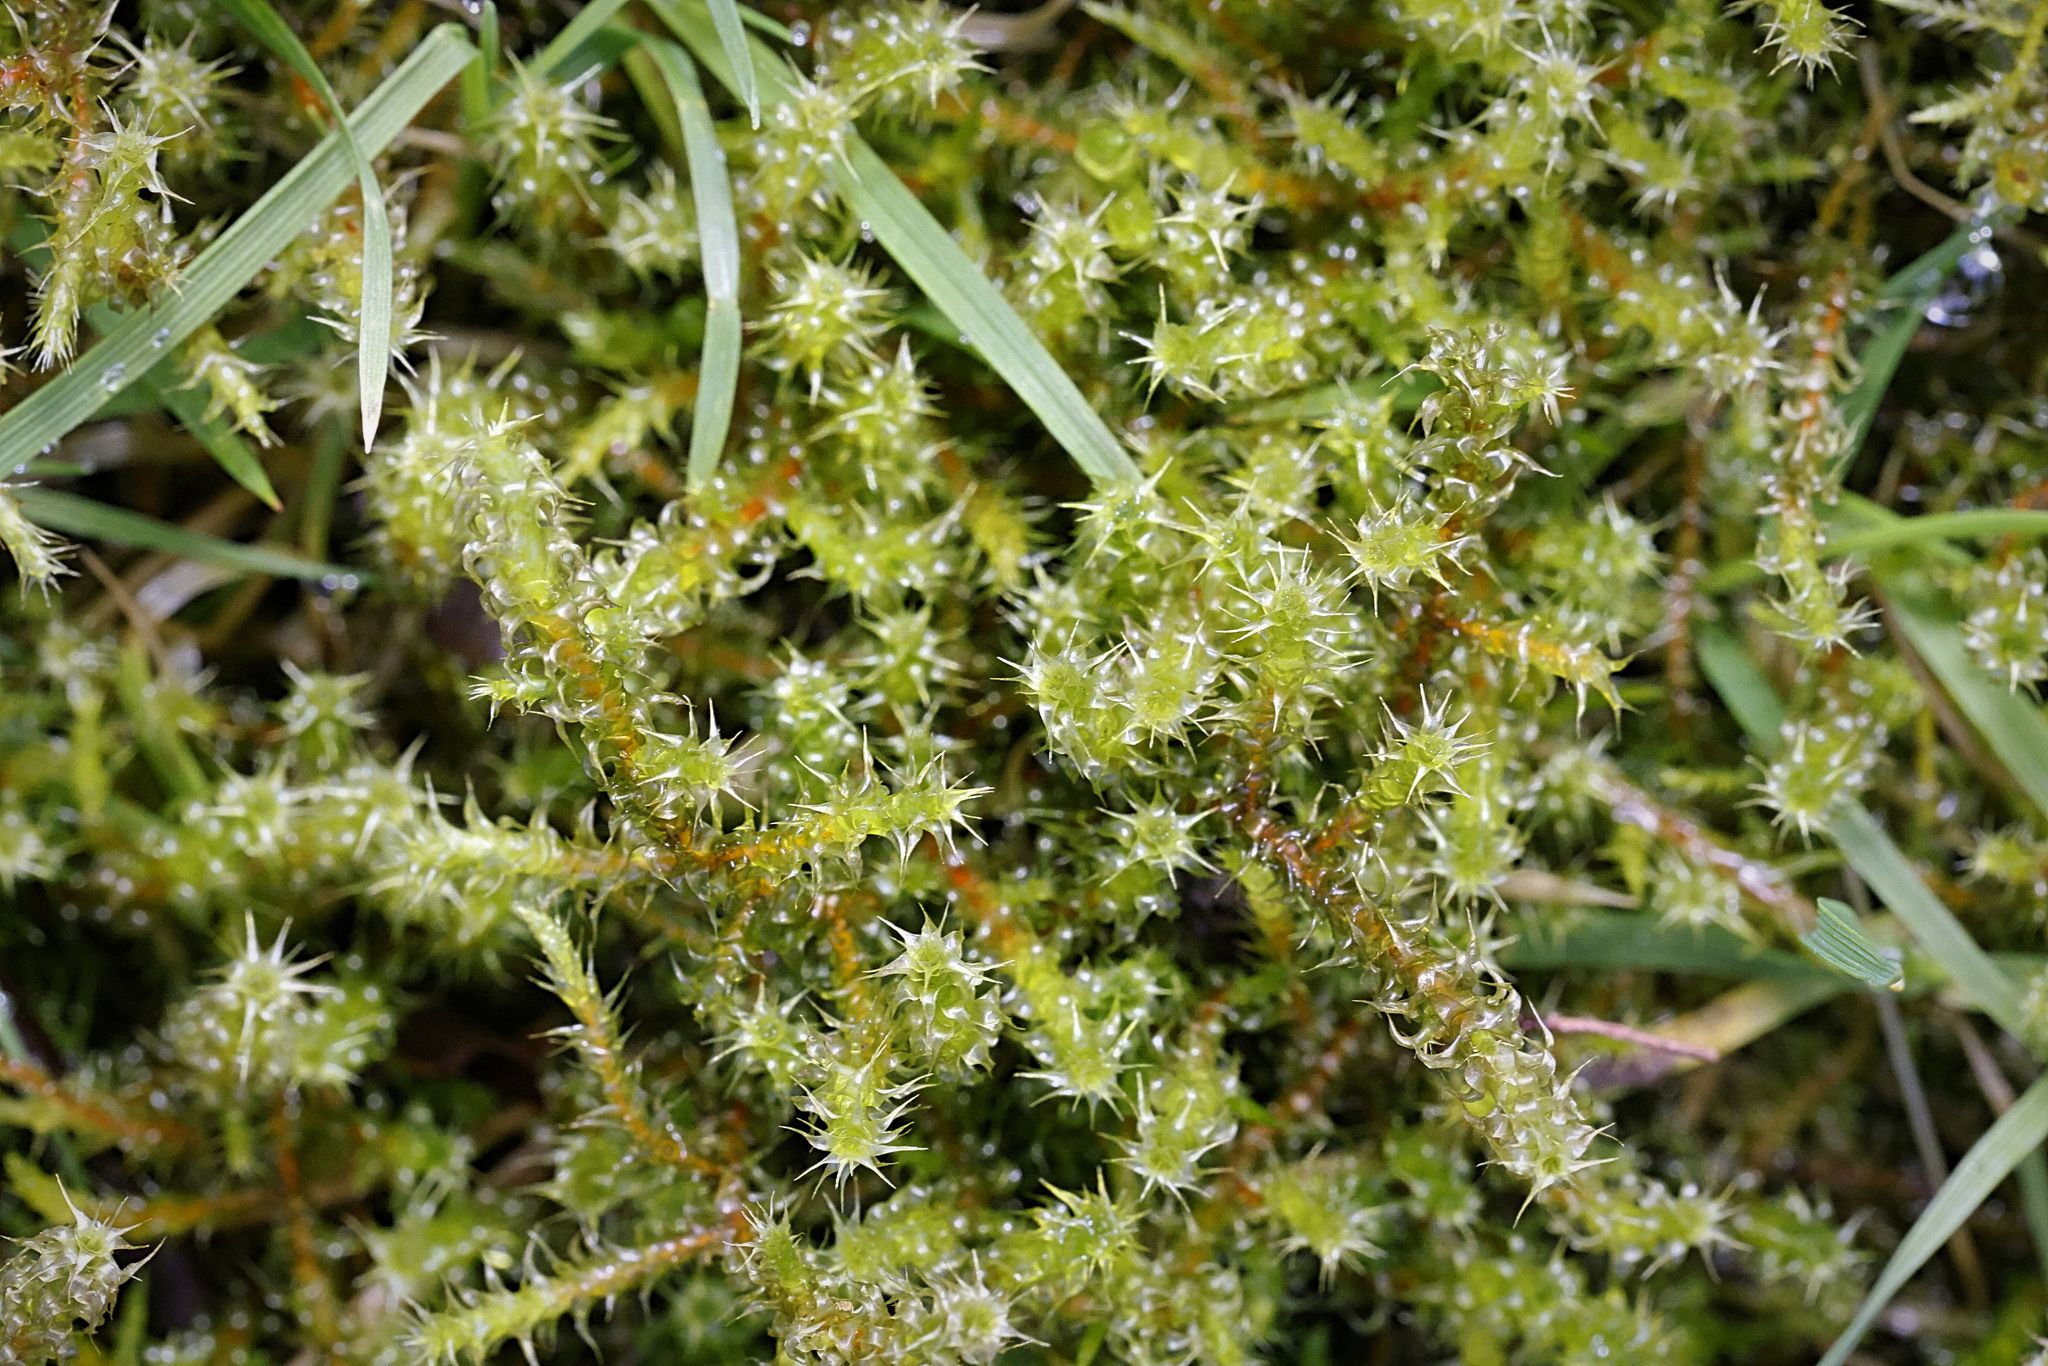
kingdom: Plantae
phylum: Bryophyta
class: Bryopsida
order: Hypnales
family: Hylocomiaceae
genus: Rhytidiadelphus
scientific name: Rhytidiadelphus squarrosus
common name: Springy turf-moss
